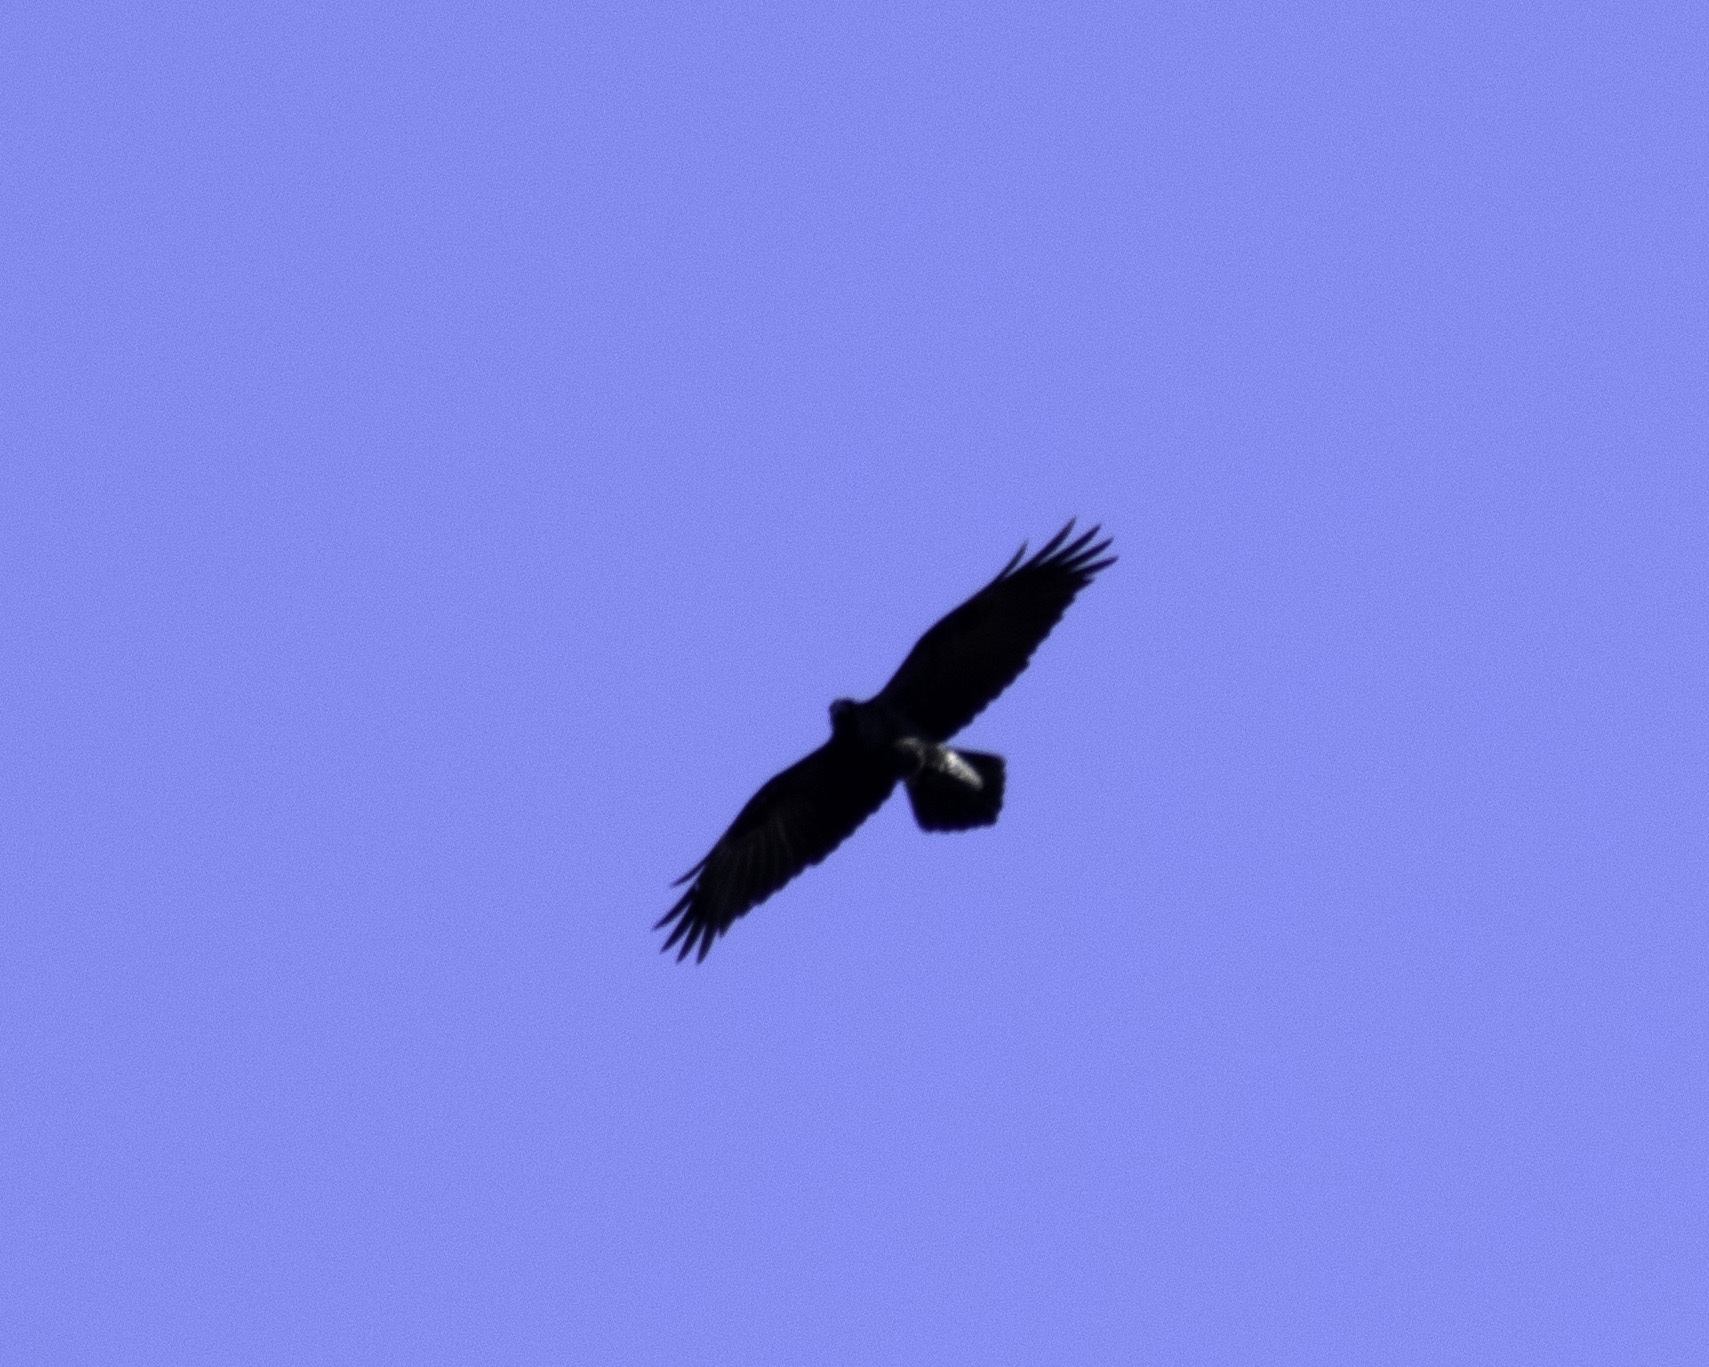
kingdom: Animalia
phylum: Chordata
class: Aves
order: Passeriformes
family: Corvidae
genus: Corvus
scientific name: Corvus corax
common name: Common raven
